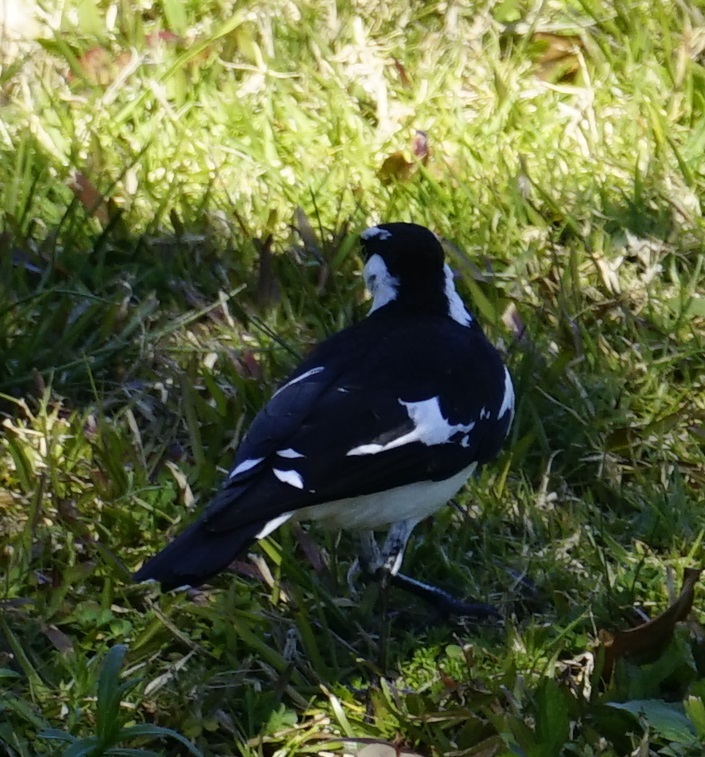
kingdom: Animalia
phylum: Chordata
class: Aves
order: Passeriformes
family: Monarchidae
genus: Grallina
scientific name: Grallina cyanoleuca
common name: Magpie-lark
